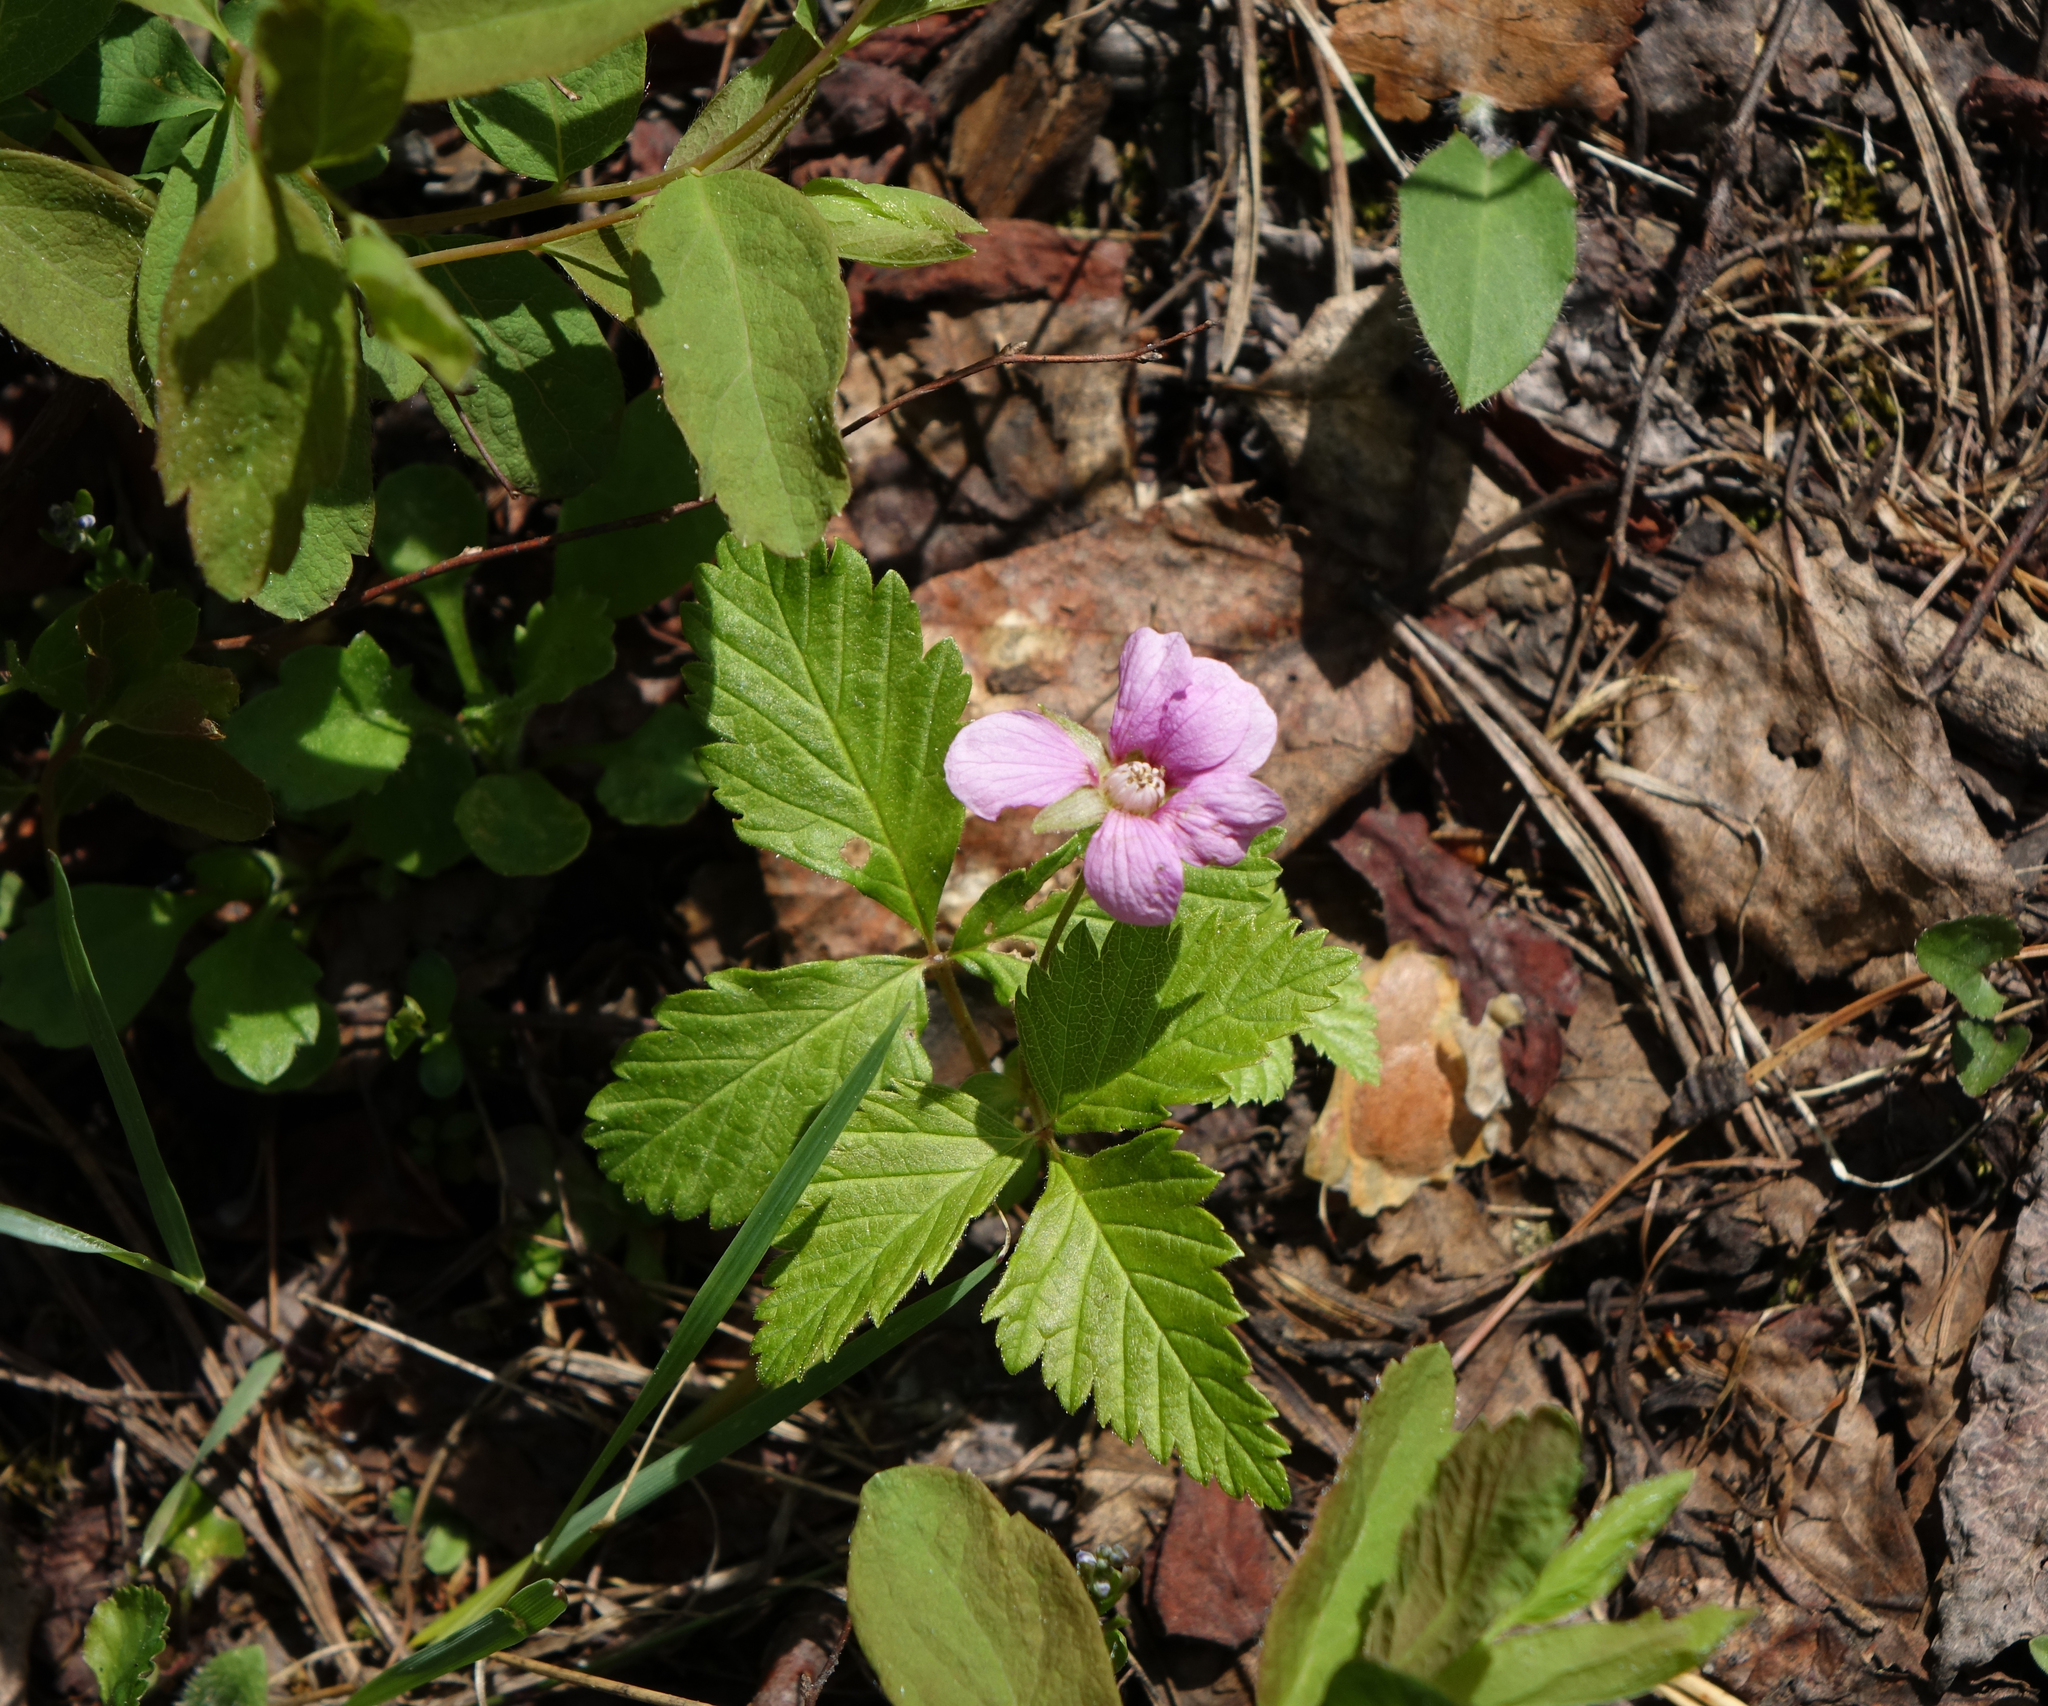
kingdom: Plantae
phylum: Tracheophyta
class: Magnoliopsida
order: Rosales
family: Rosaceae
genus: Rubus
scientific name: Rubus arcticus
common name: Arctic bramble
